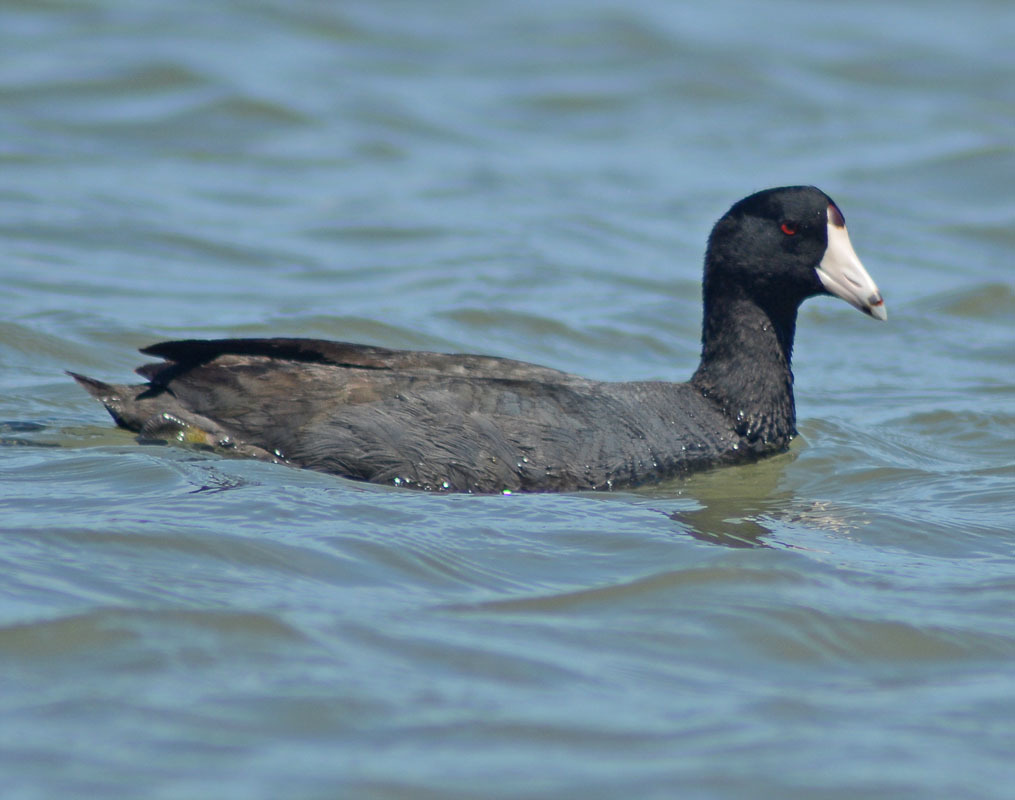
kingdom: Animalia
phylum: Chordata
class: Aves
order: Gruiformes
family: Rallidae
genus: Fulica
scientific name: Fulica americana
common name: American coot
